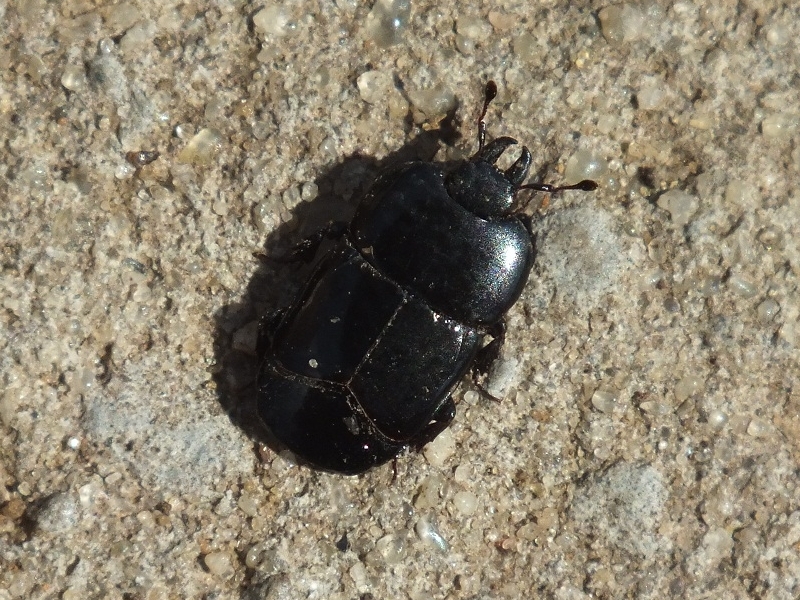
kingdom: Animalia
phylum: Arthropoda
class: Insecta
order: Coleoptera
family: Histeridae
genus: Hololepta
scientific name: Hololepta plana
